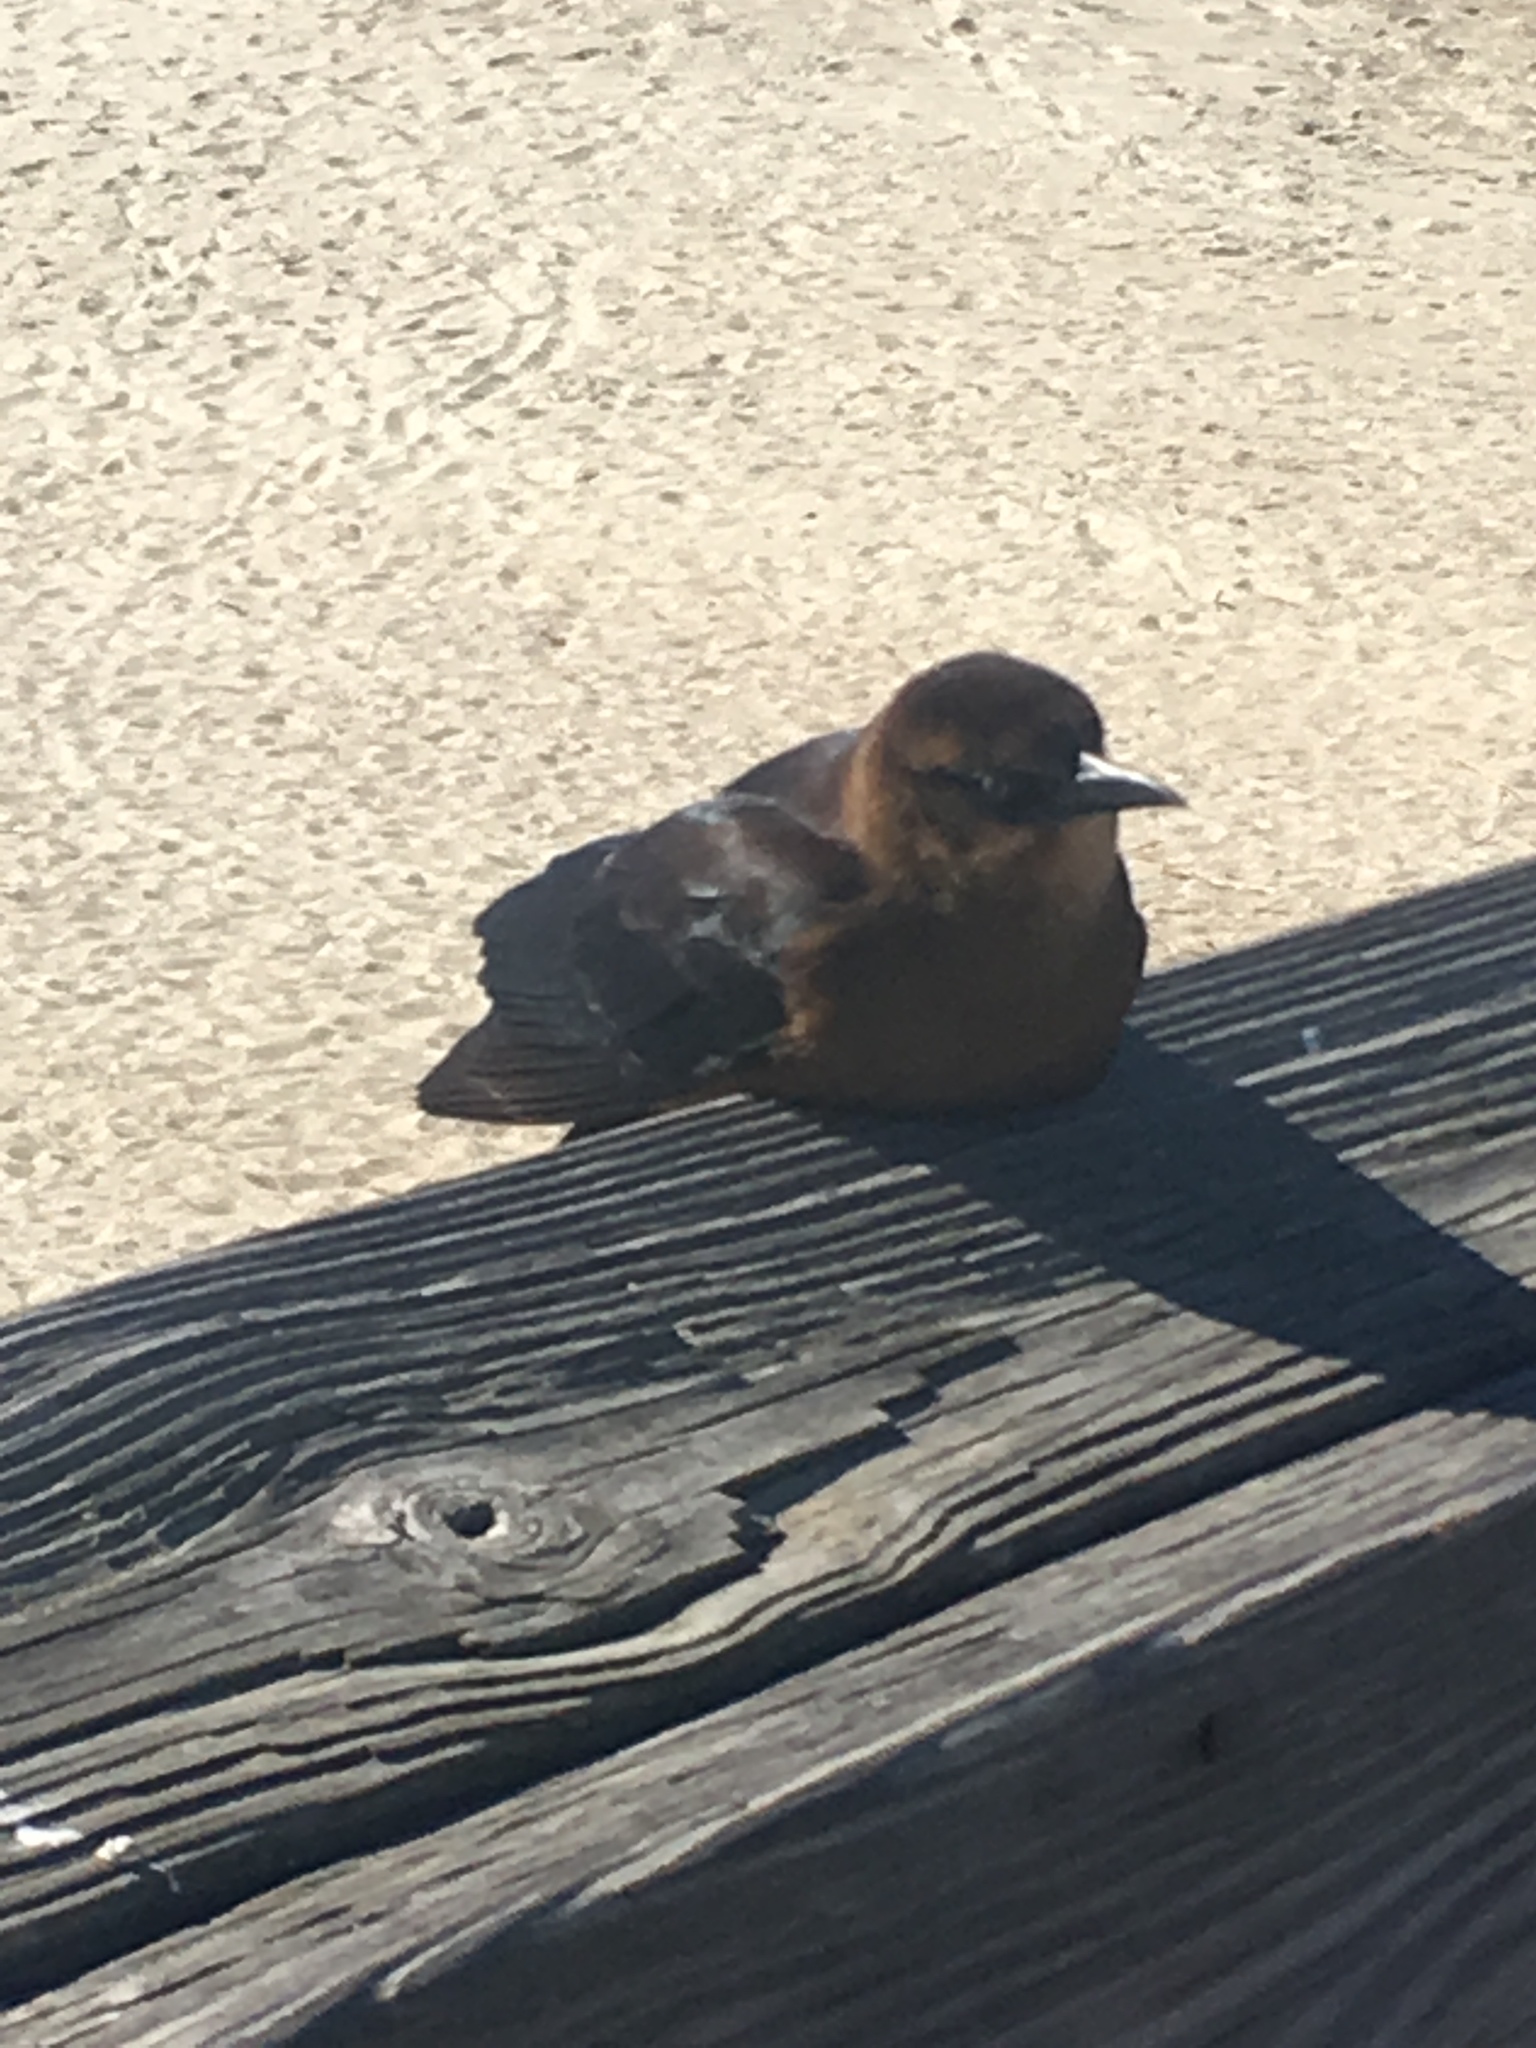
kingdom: Animalia
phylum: Chordata
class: Aves
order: Passeriformes
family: Icteridae
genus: Quiscalus
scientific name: Quiscalus major
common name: Boat-tailed grackle
